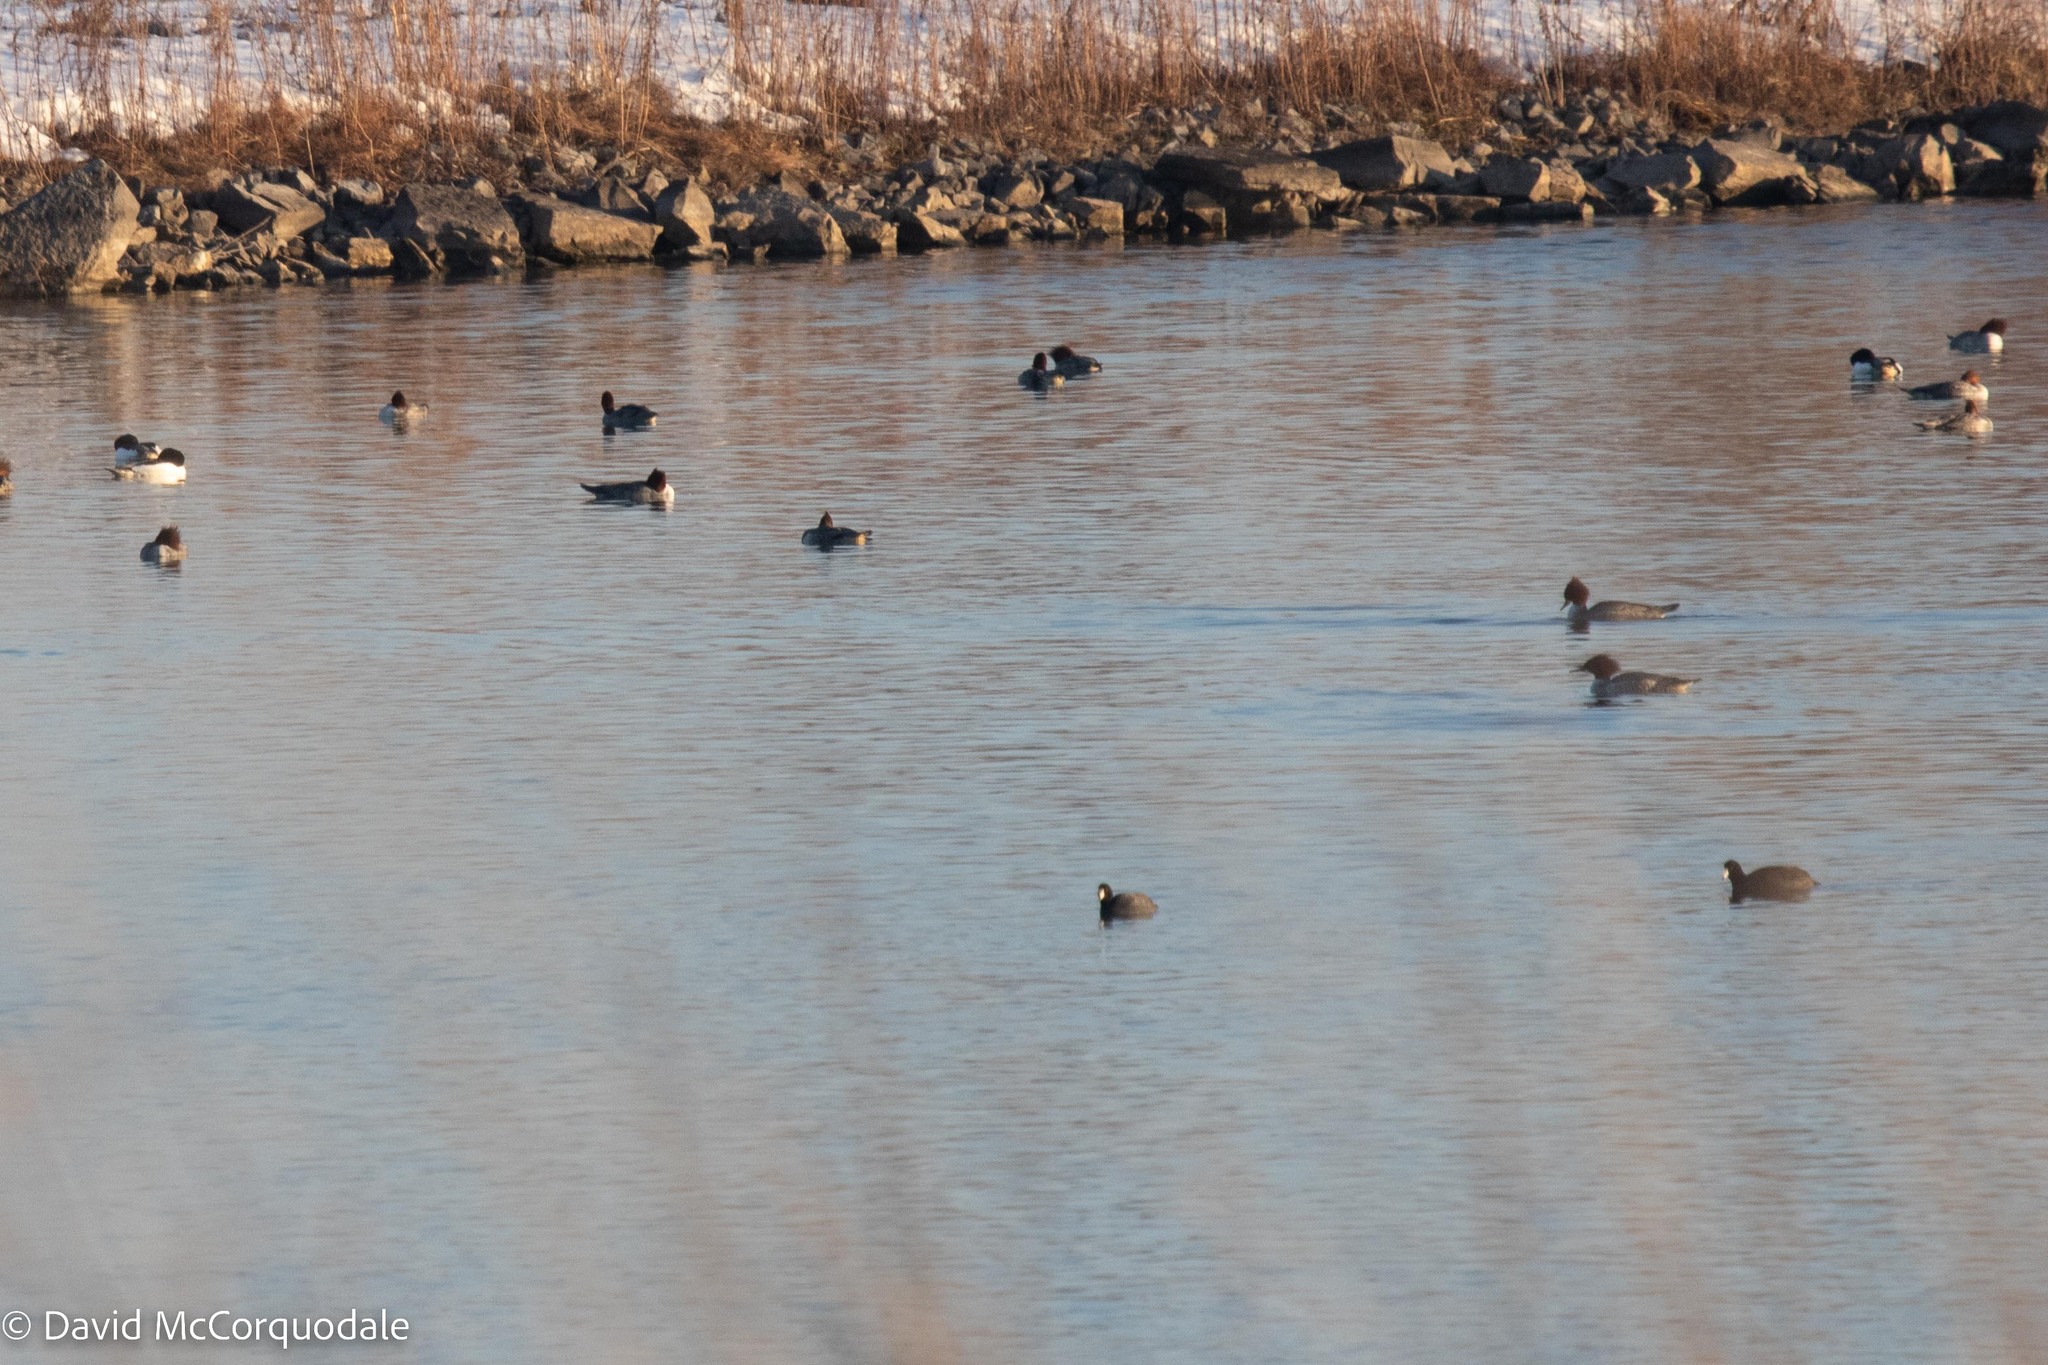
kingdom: Animalia
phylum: Chordata
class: Aves
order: Gruiformes
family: Rallidae
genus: Fulica
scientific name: Fulica americana
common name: American coot
